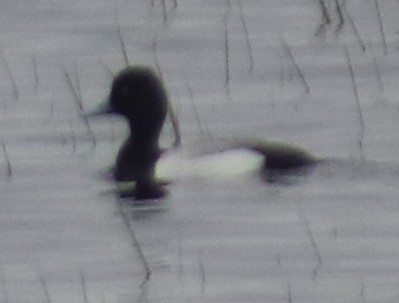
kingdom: Animalia
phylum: Chordata
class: Aves
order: Anseriformes
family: Anatidae
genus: Aythya
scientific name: Aythya affinis
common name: Lesser scaup
